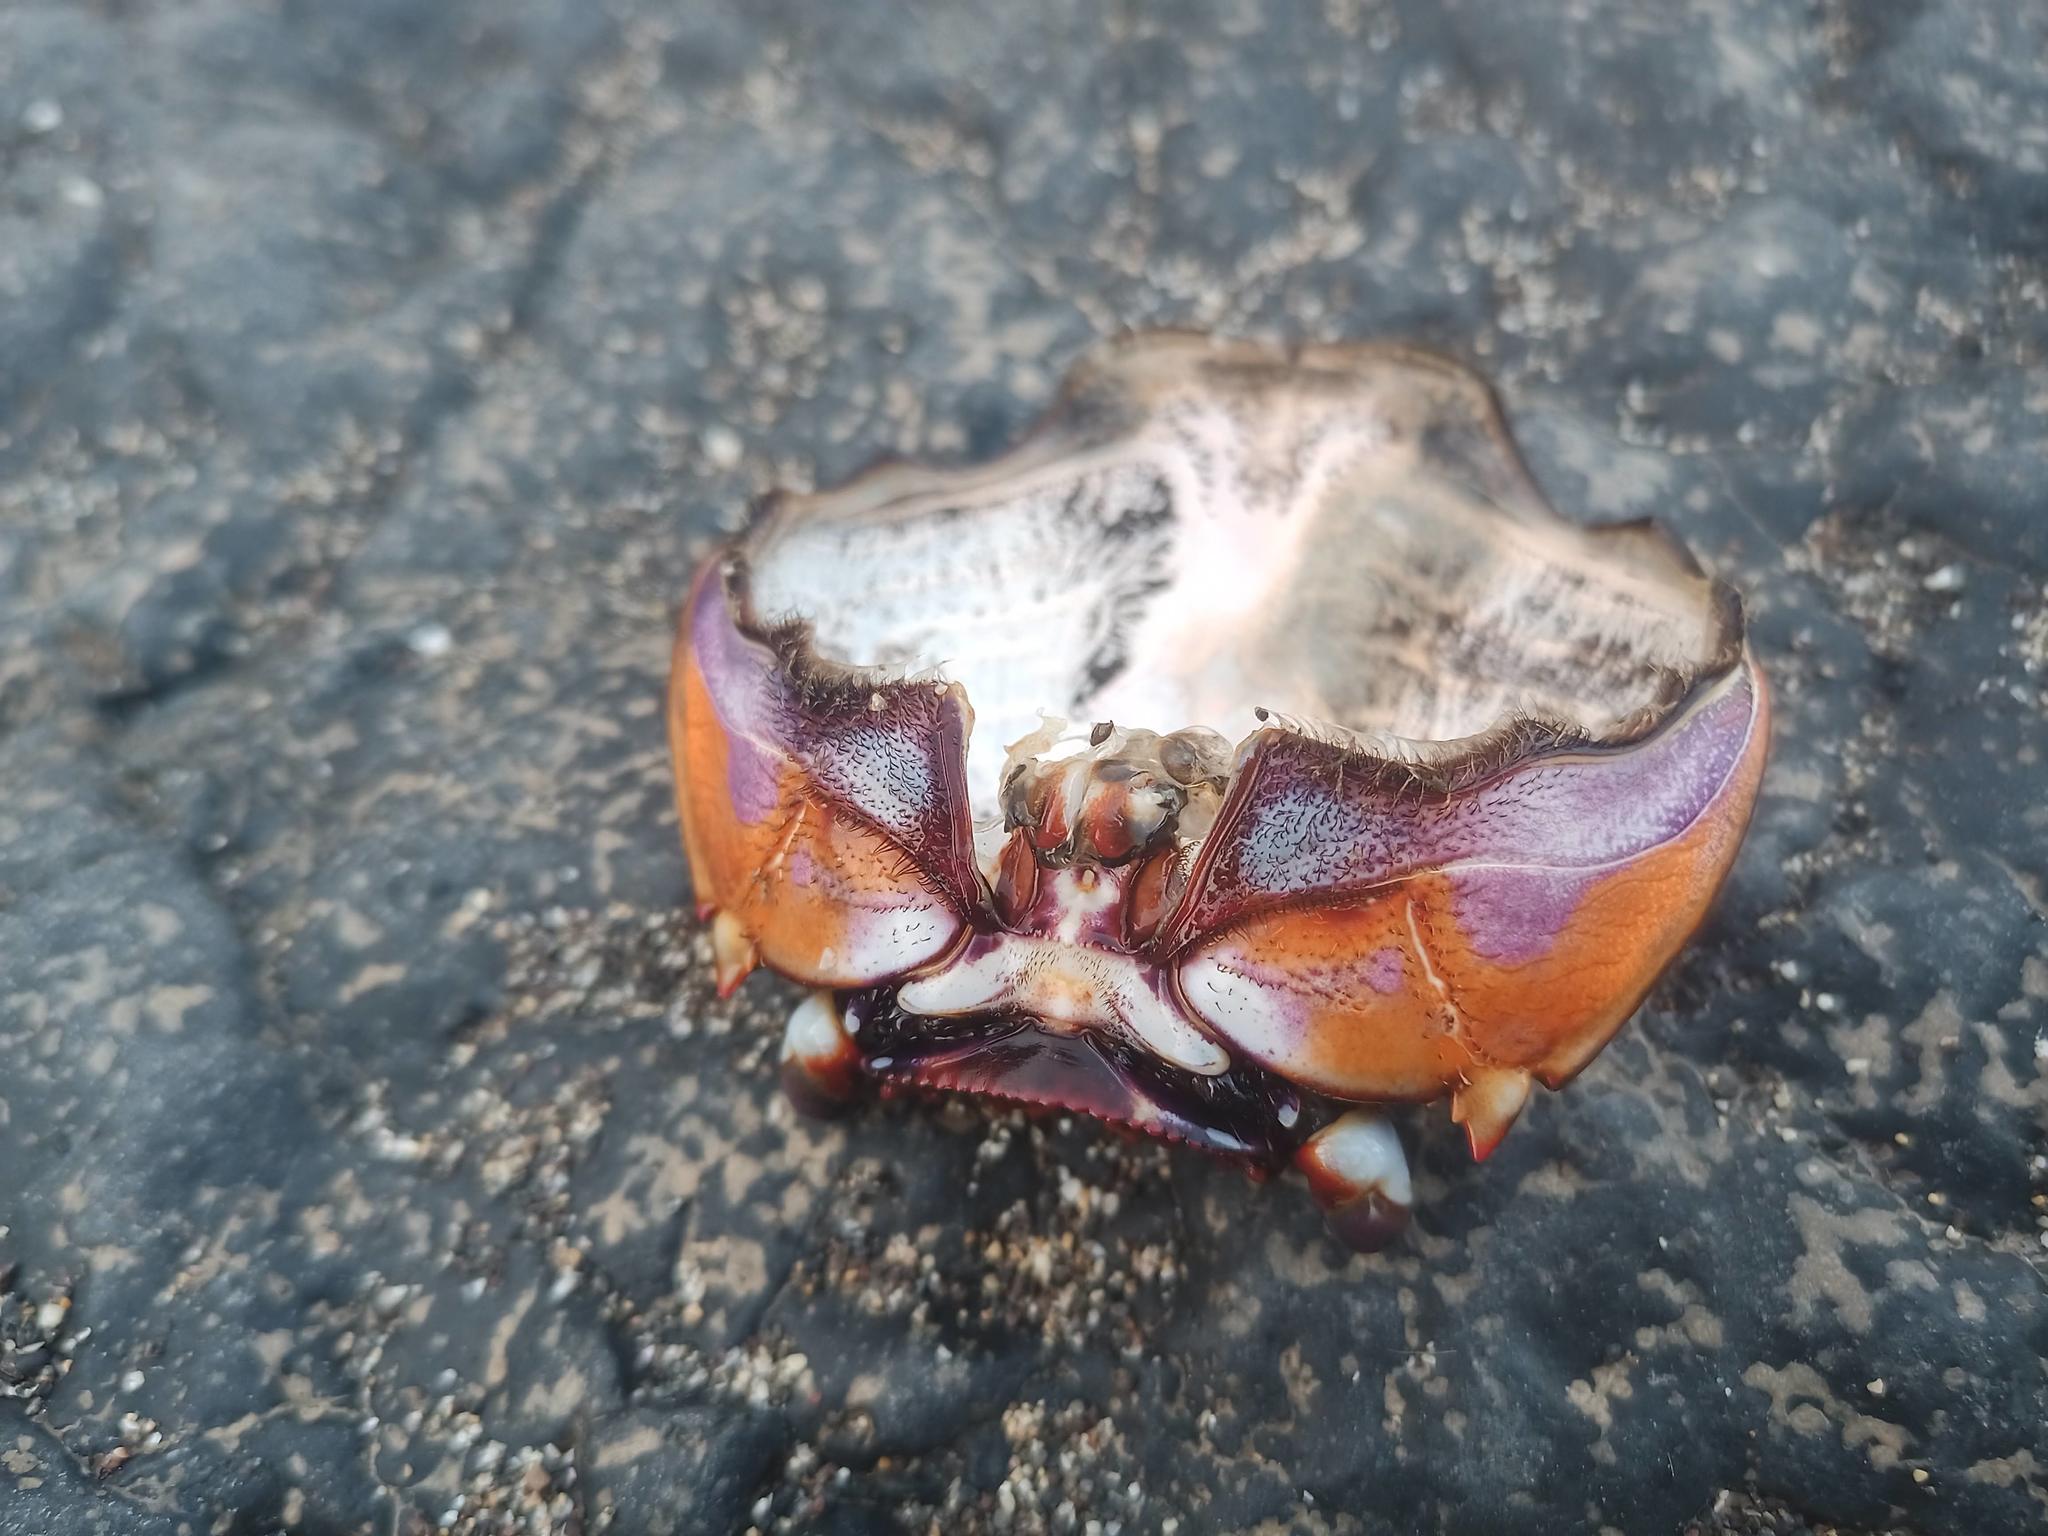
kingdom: Animalia
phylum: Arthropoda
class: Malacostraca
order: Decapoda
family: Grapsidae
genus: Grapsus
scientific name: Grapsus adscensionis
